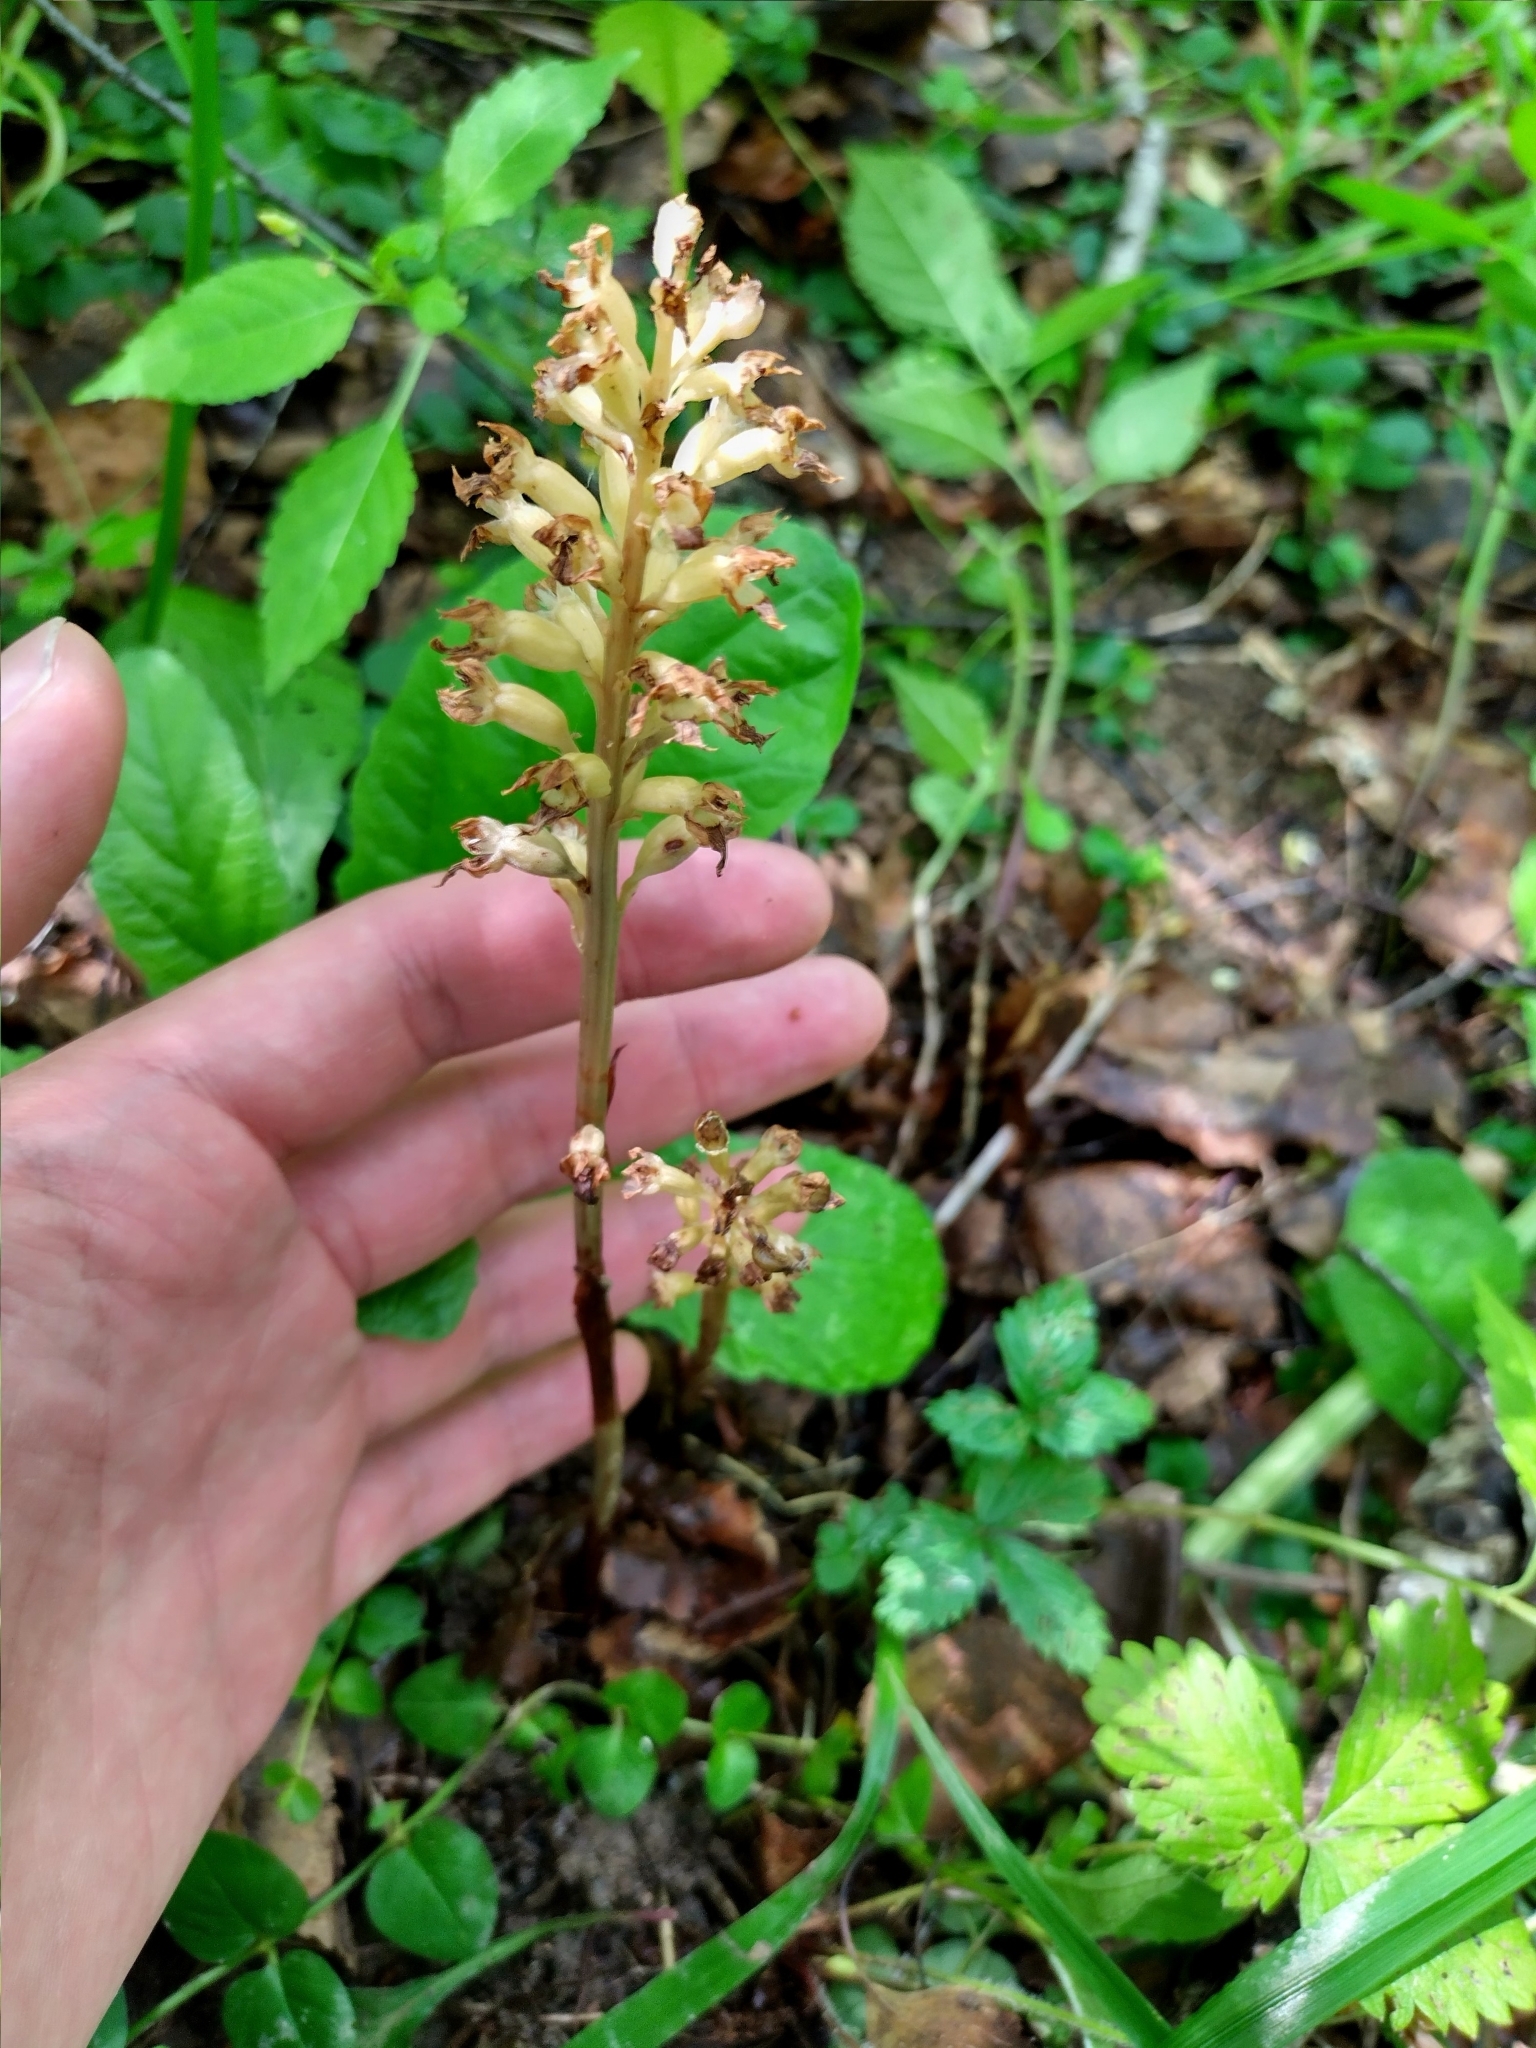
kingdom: Plantae
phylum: Tracheophyta
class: Liliopsida
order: Asparagales
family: Orchidaceae
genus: Neottia
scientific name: Neottia nidus-avis
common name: Bird's-nest orchid
